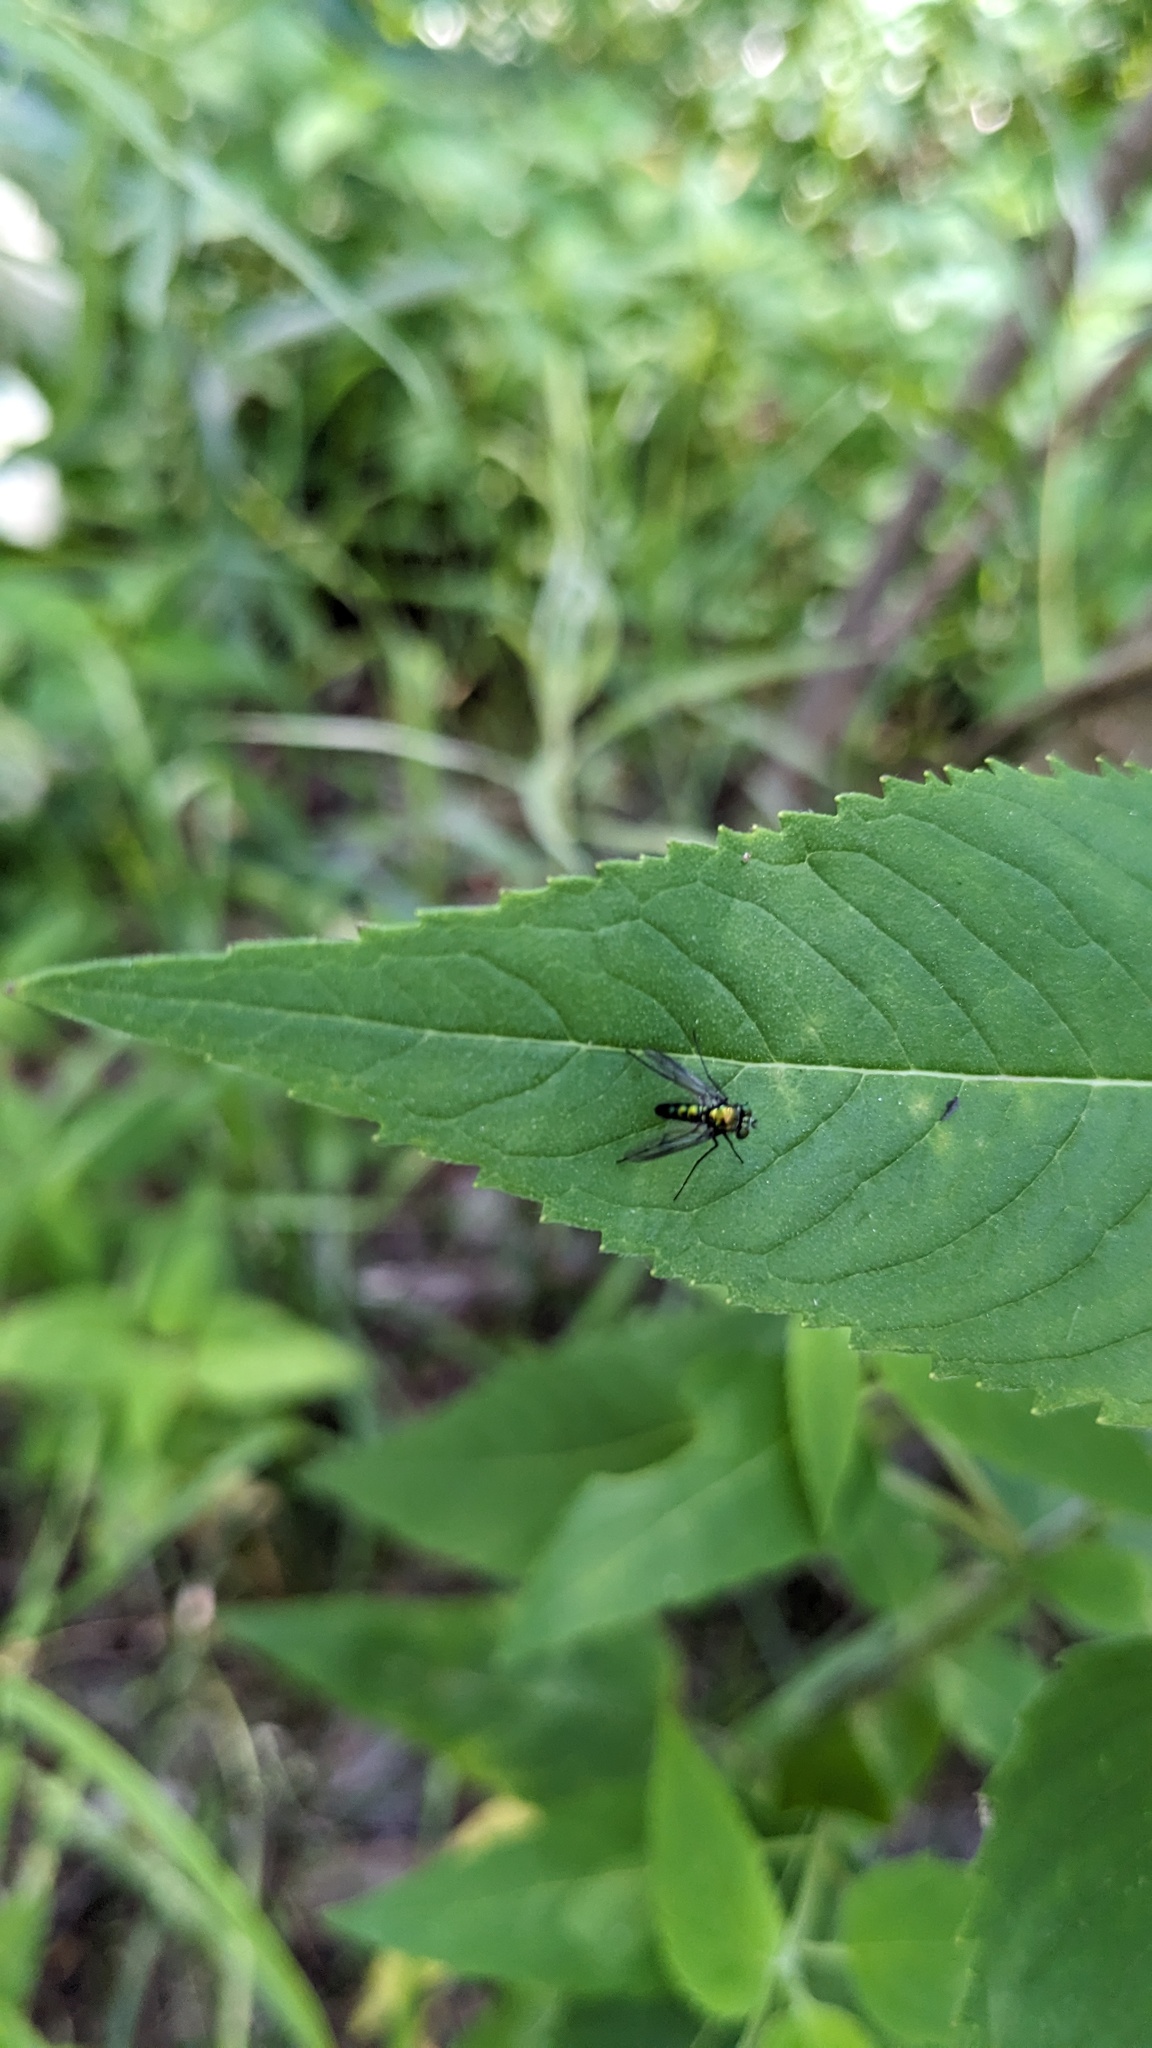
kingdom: Animalia
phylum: Arthropoda
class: Insecta
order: Diptera
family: Dolichopodidae
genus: Condylostylus
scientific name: Condylostylus patibulatus
